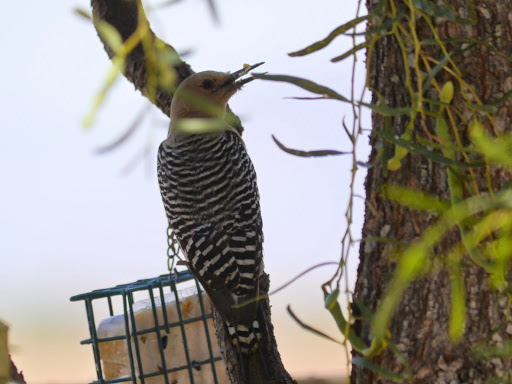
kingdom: Animalia
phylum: Chordata
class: Aves
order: Piciformes
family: Picidae
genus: Melanerpes
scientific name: Melanerpes uropygialis
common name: Gila woodpecker
